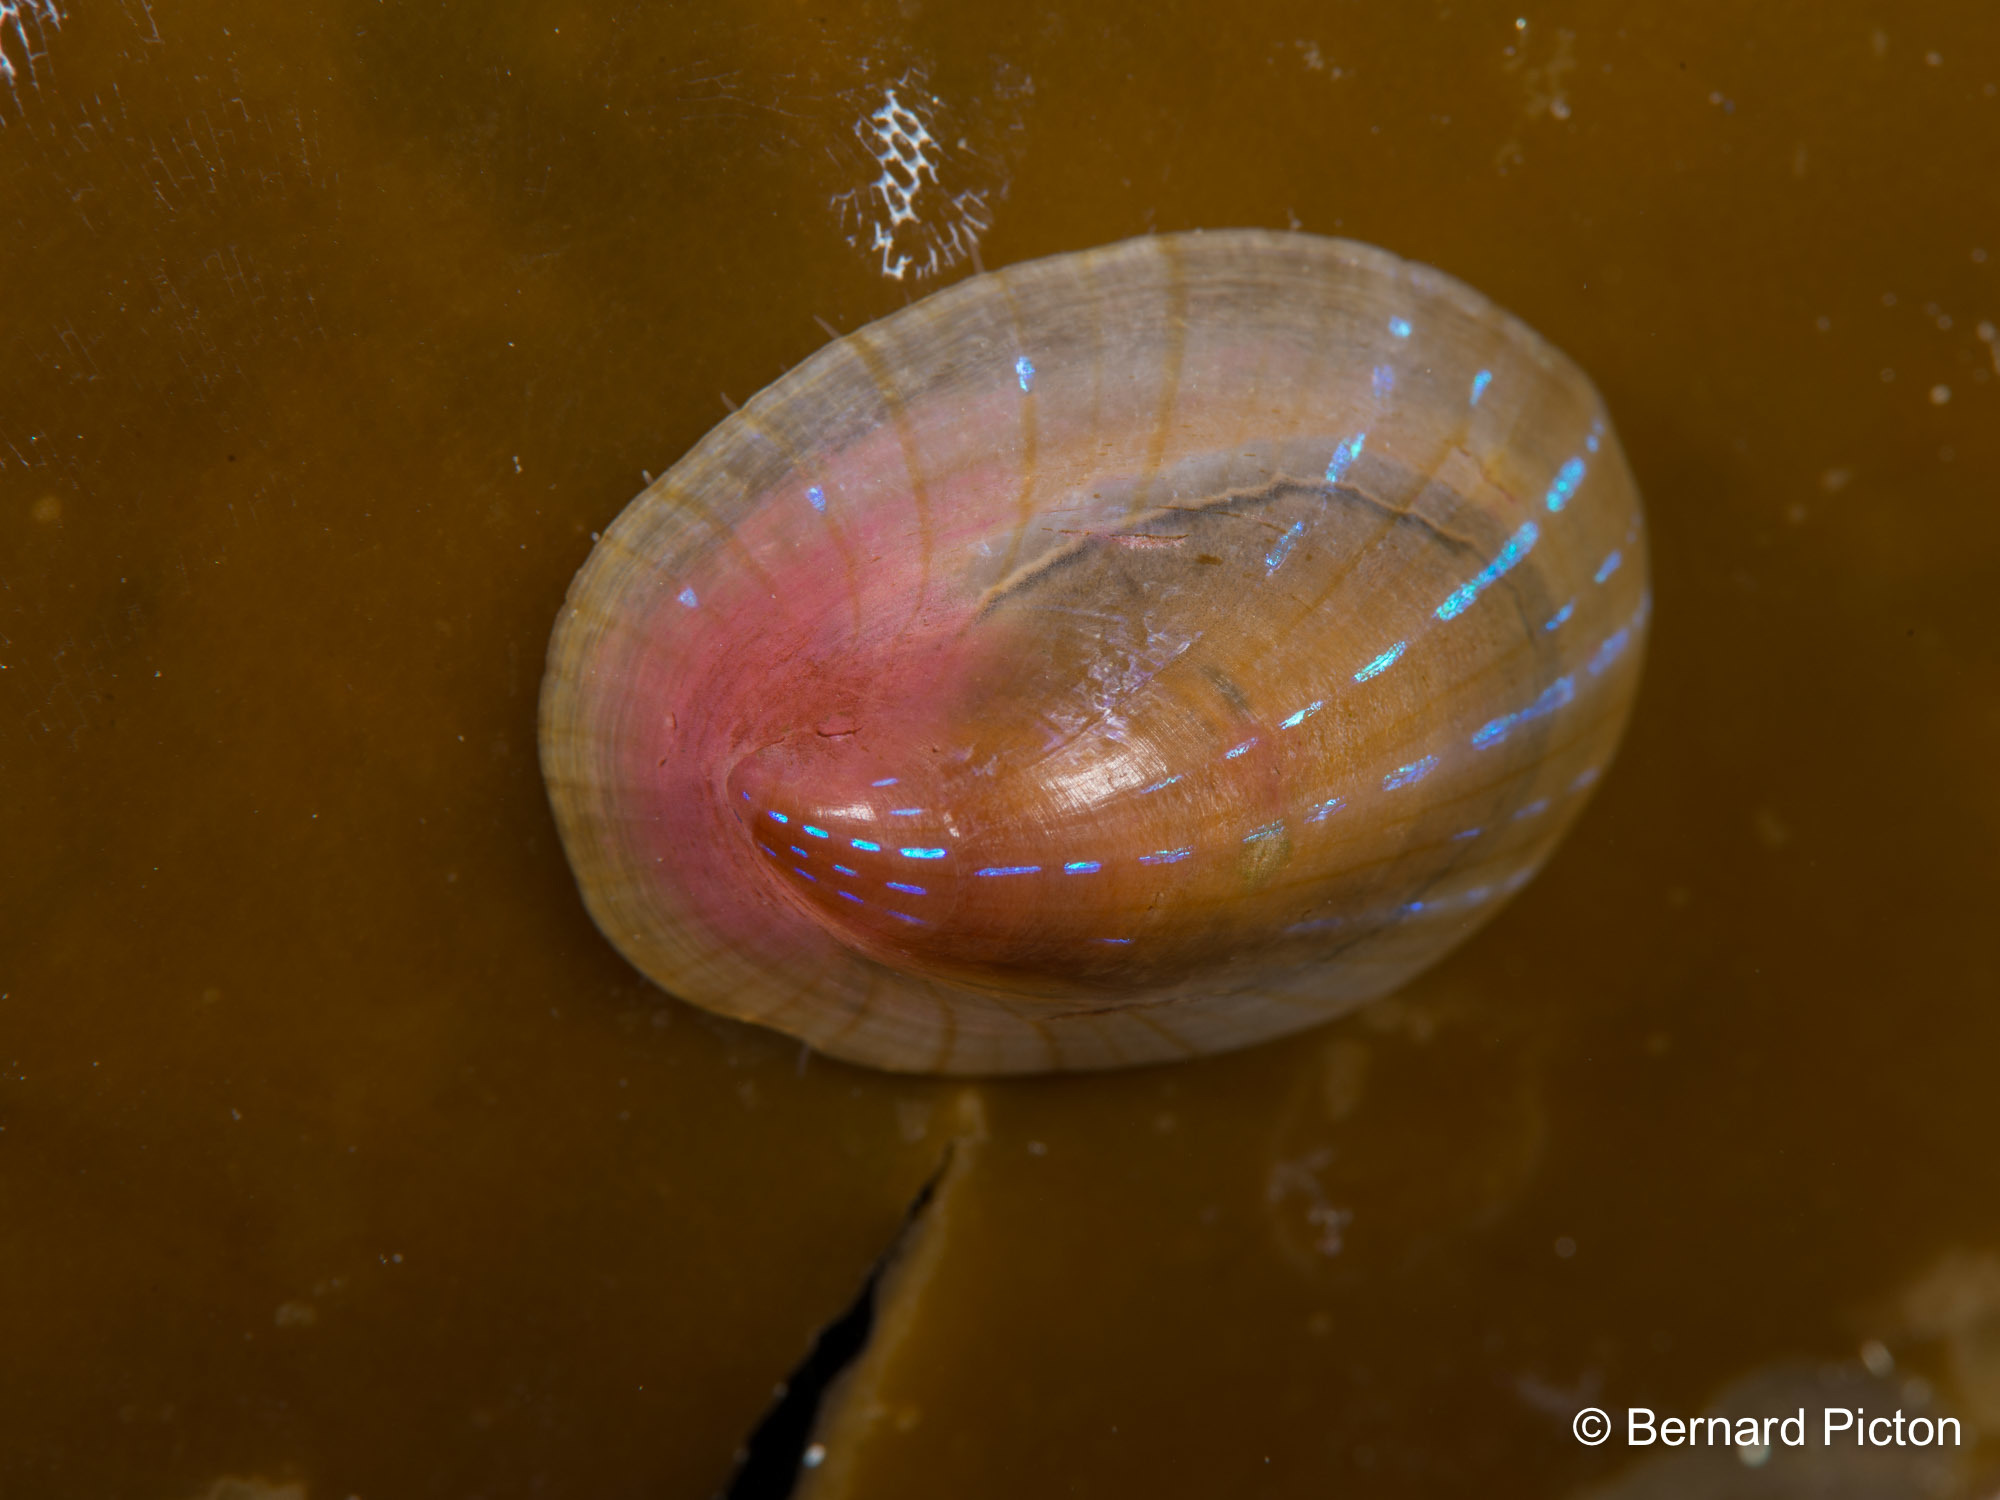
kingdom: Animalia
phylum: Mollusca
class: Gastropoda
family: Patellidae
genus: Patella
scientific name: Patella pellucida
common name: Blue-rayed limpet
